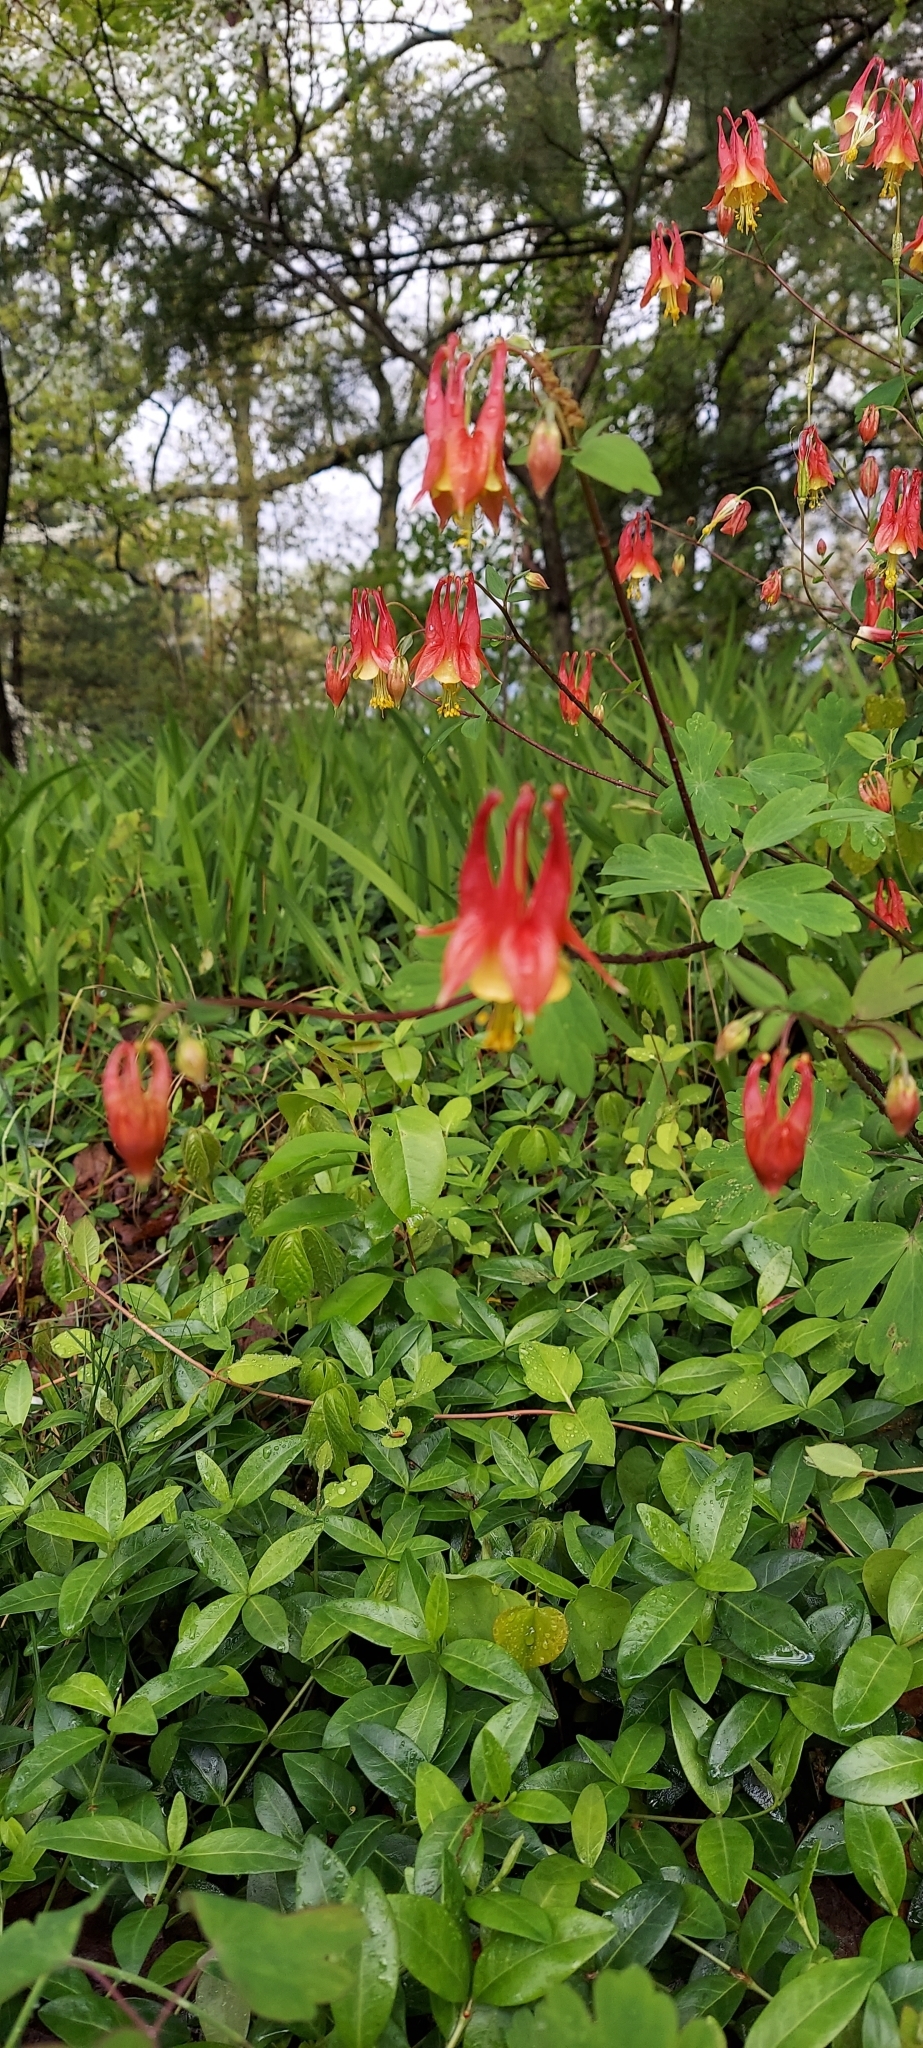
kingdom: Plantae
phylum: Tracheophyta
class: Magnoliopsida
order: Ranunculales
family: Ranunculaceae
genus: Aquilegia
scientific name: Aquilegia canadensis
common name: American columbine
